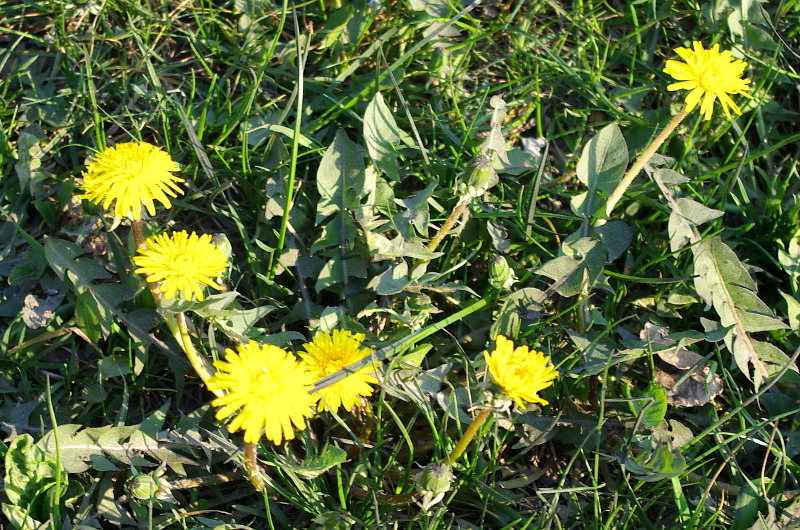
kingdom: Plantae
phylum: Tracheophyta
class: Magnoliopsida
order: Asterales
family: Asteraceae
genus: Taraxacum
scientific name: Taraxacum officinale
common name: Common dandelion
